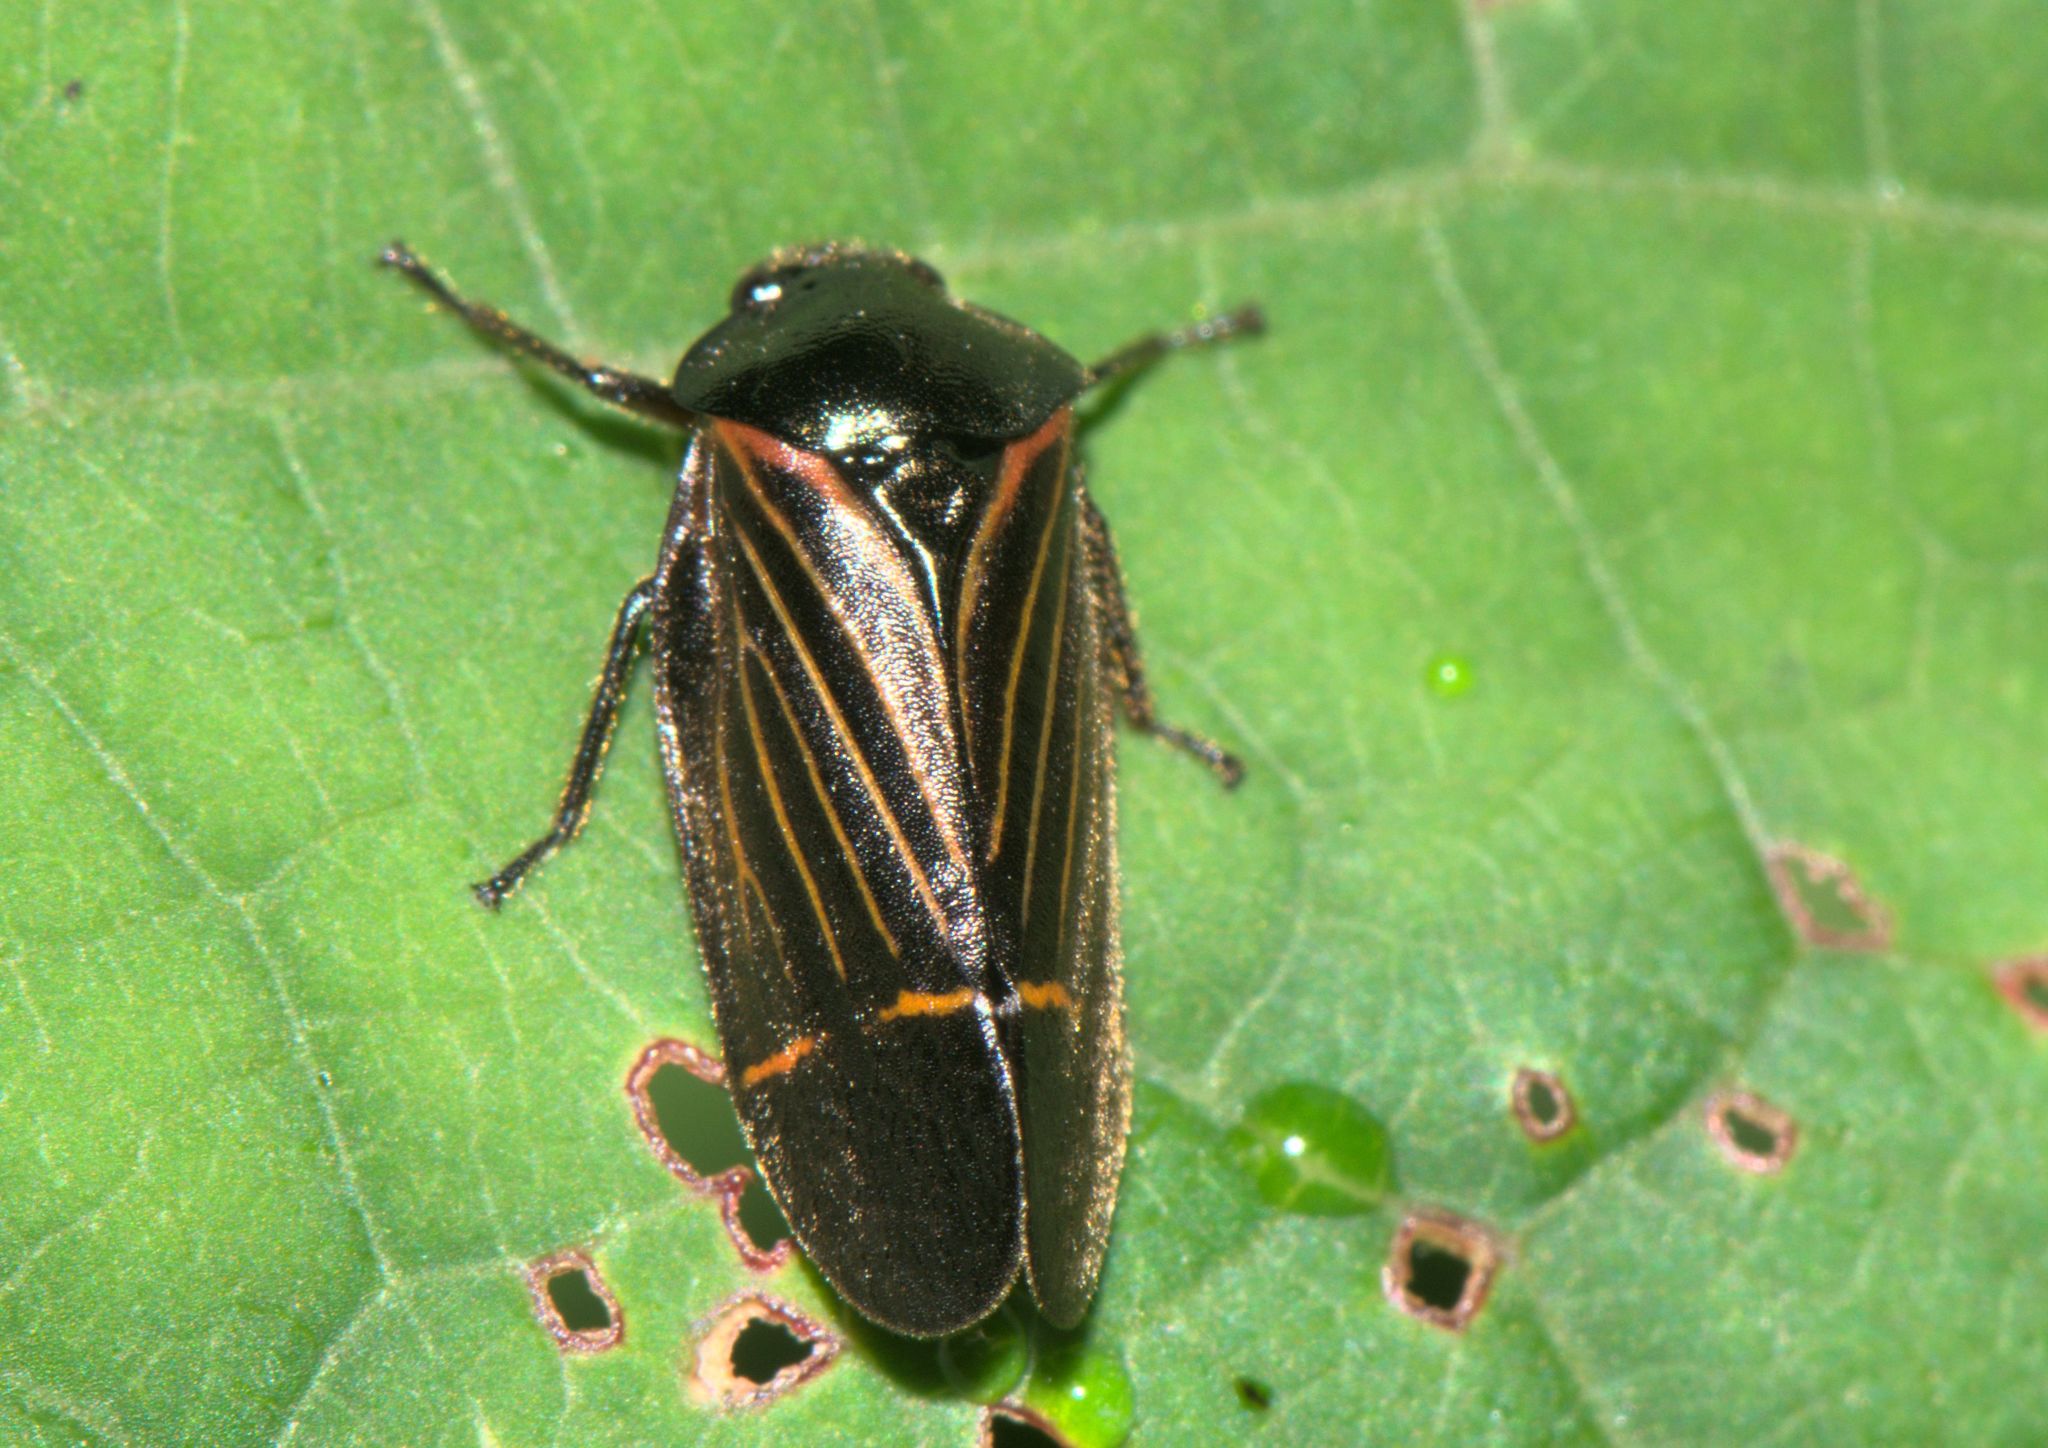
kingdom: Animalia
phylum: Arthropoda
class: Insecta
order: Hemiptera
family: Cercopidae
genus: Cosmoscarta
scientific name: Cosmoscarta elegantula
